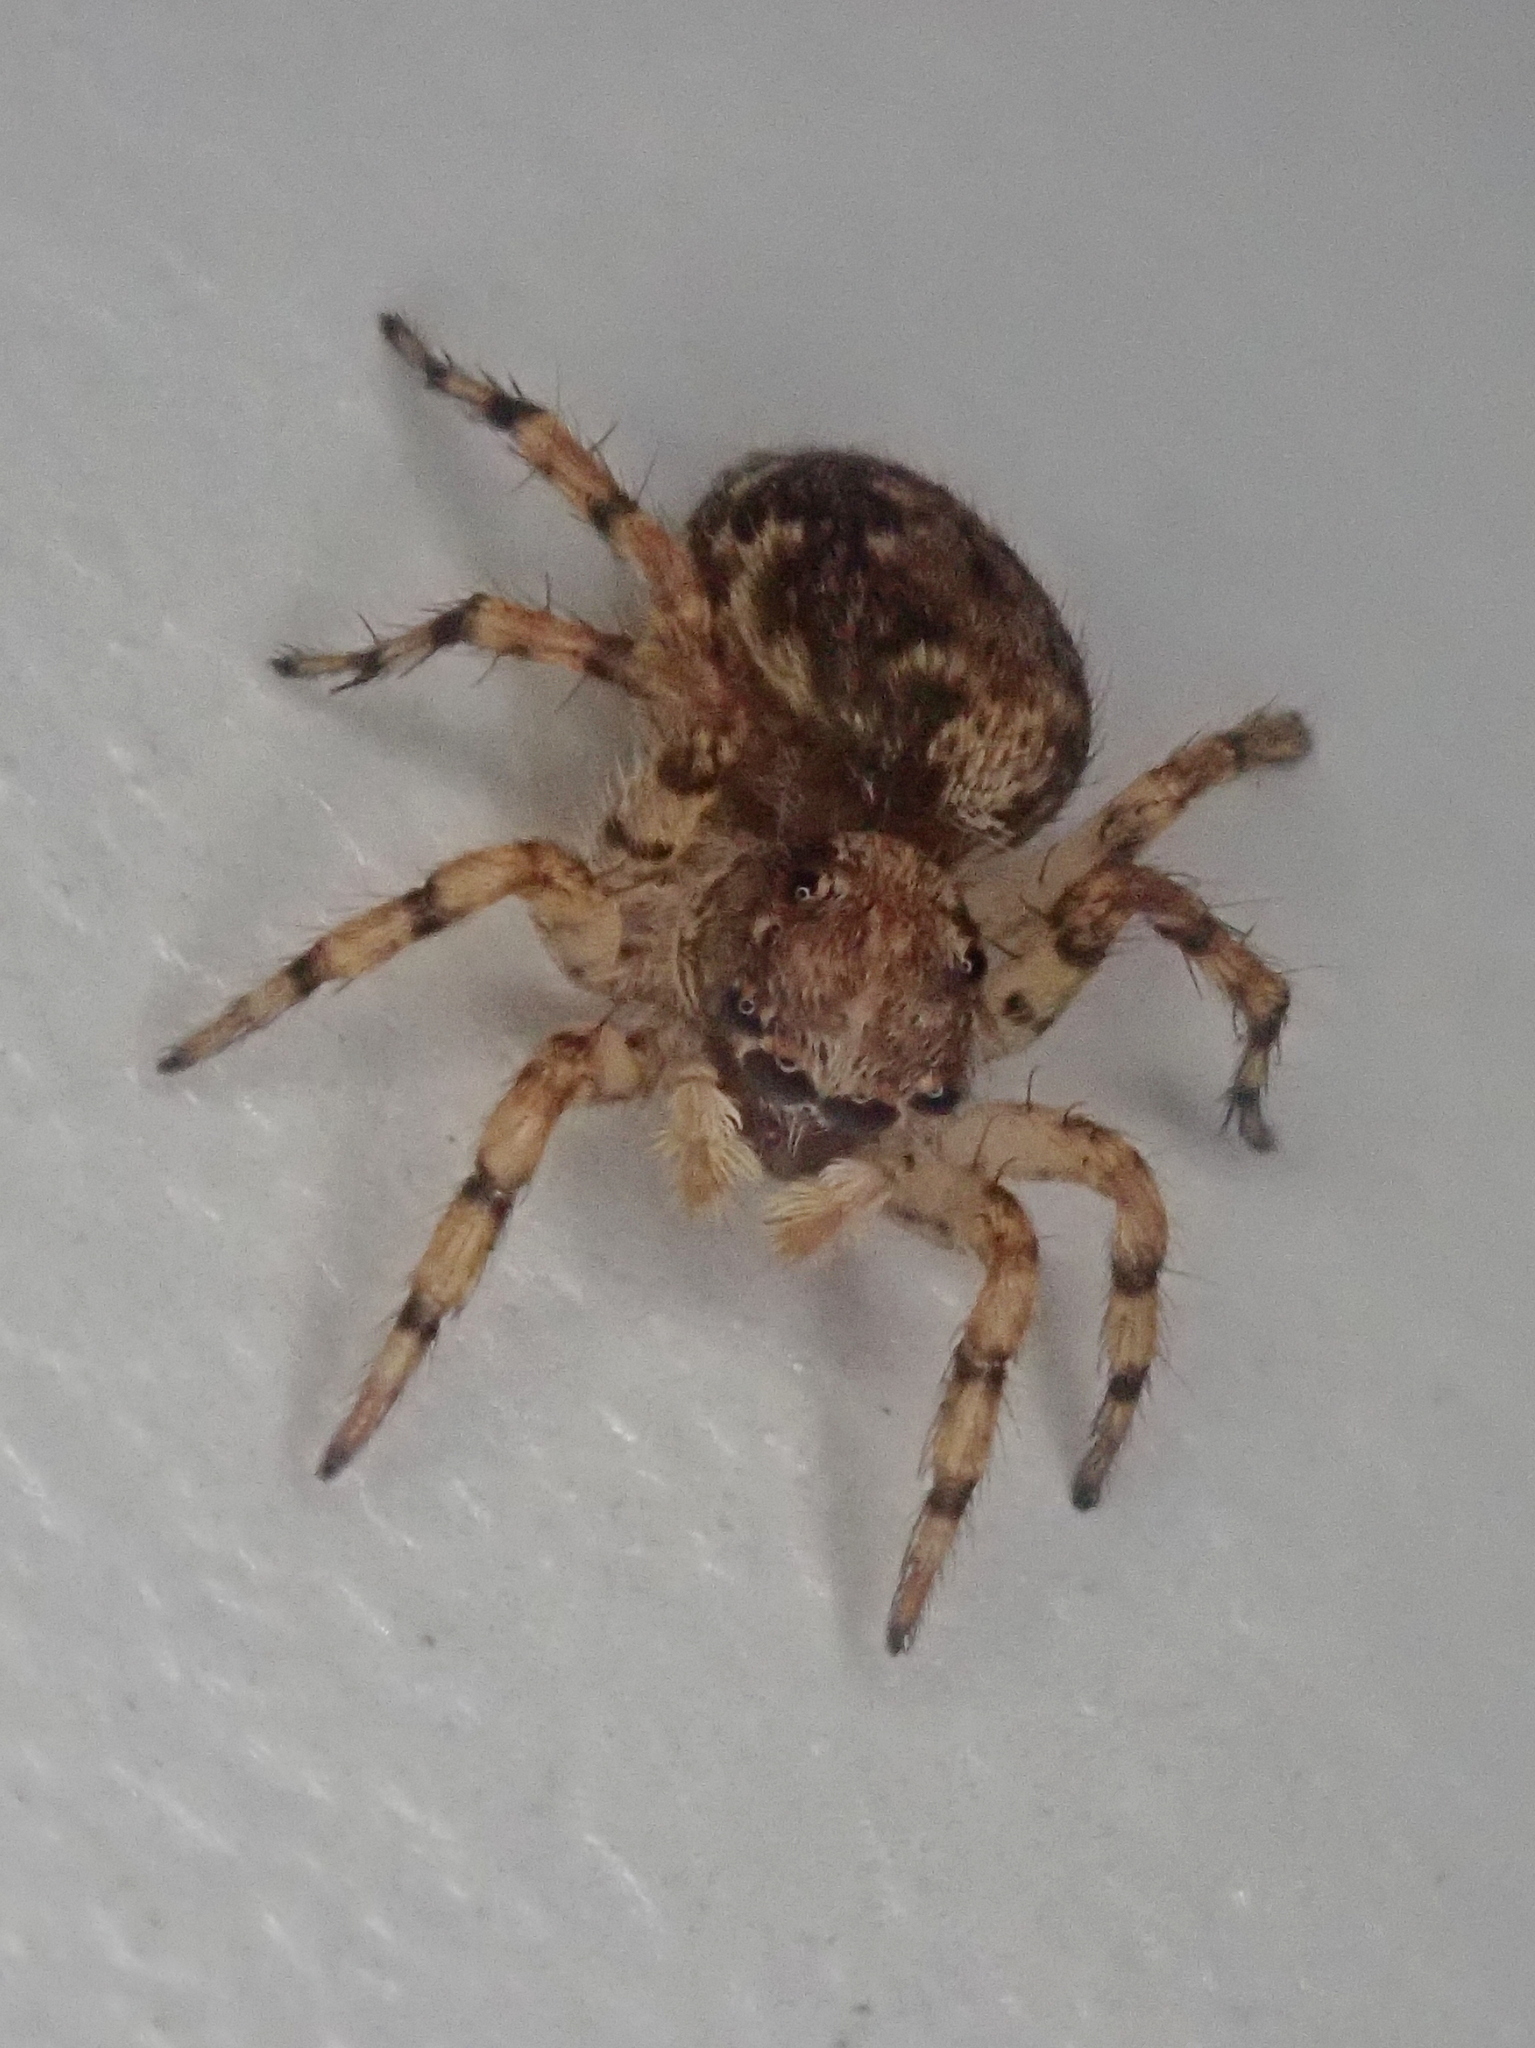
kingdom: Animalia
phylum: Arthropoda
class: Arachnida
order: Araneae
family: Salticidae
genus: Marma
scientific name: Marma nigritarsis
